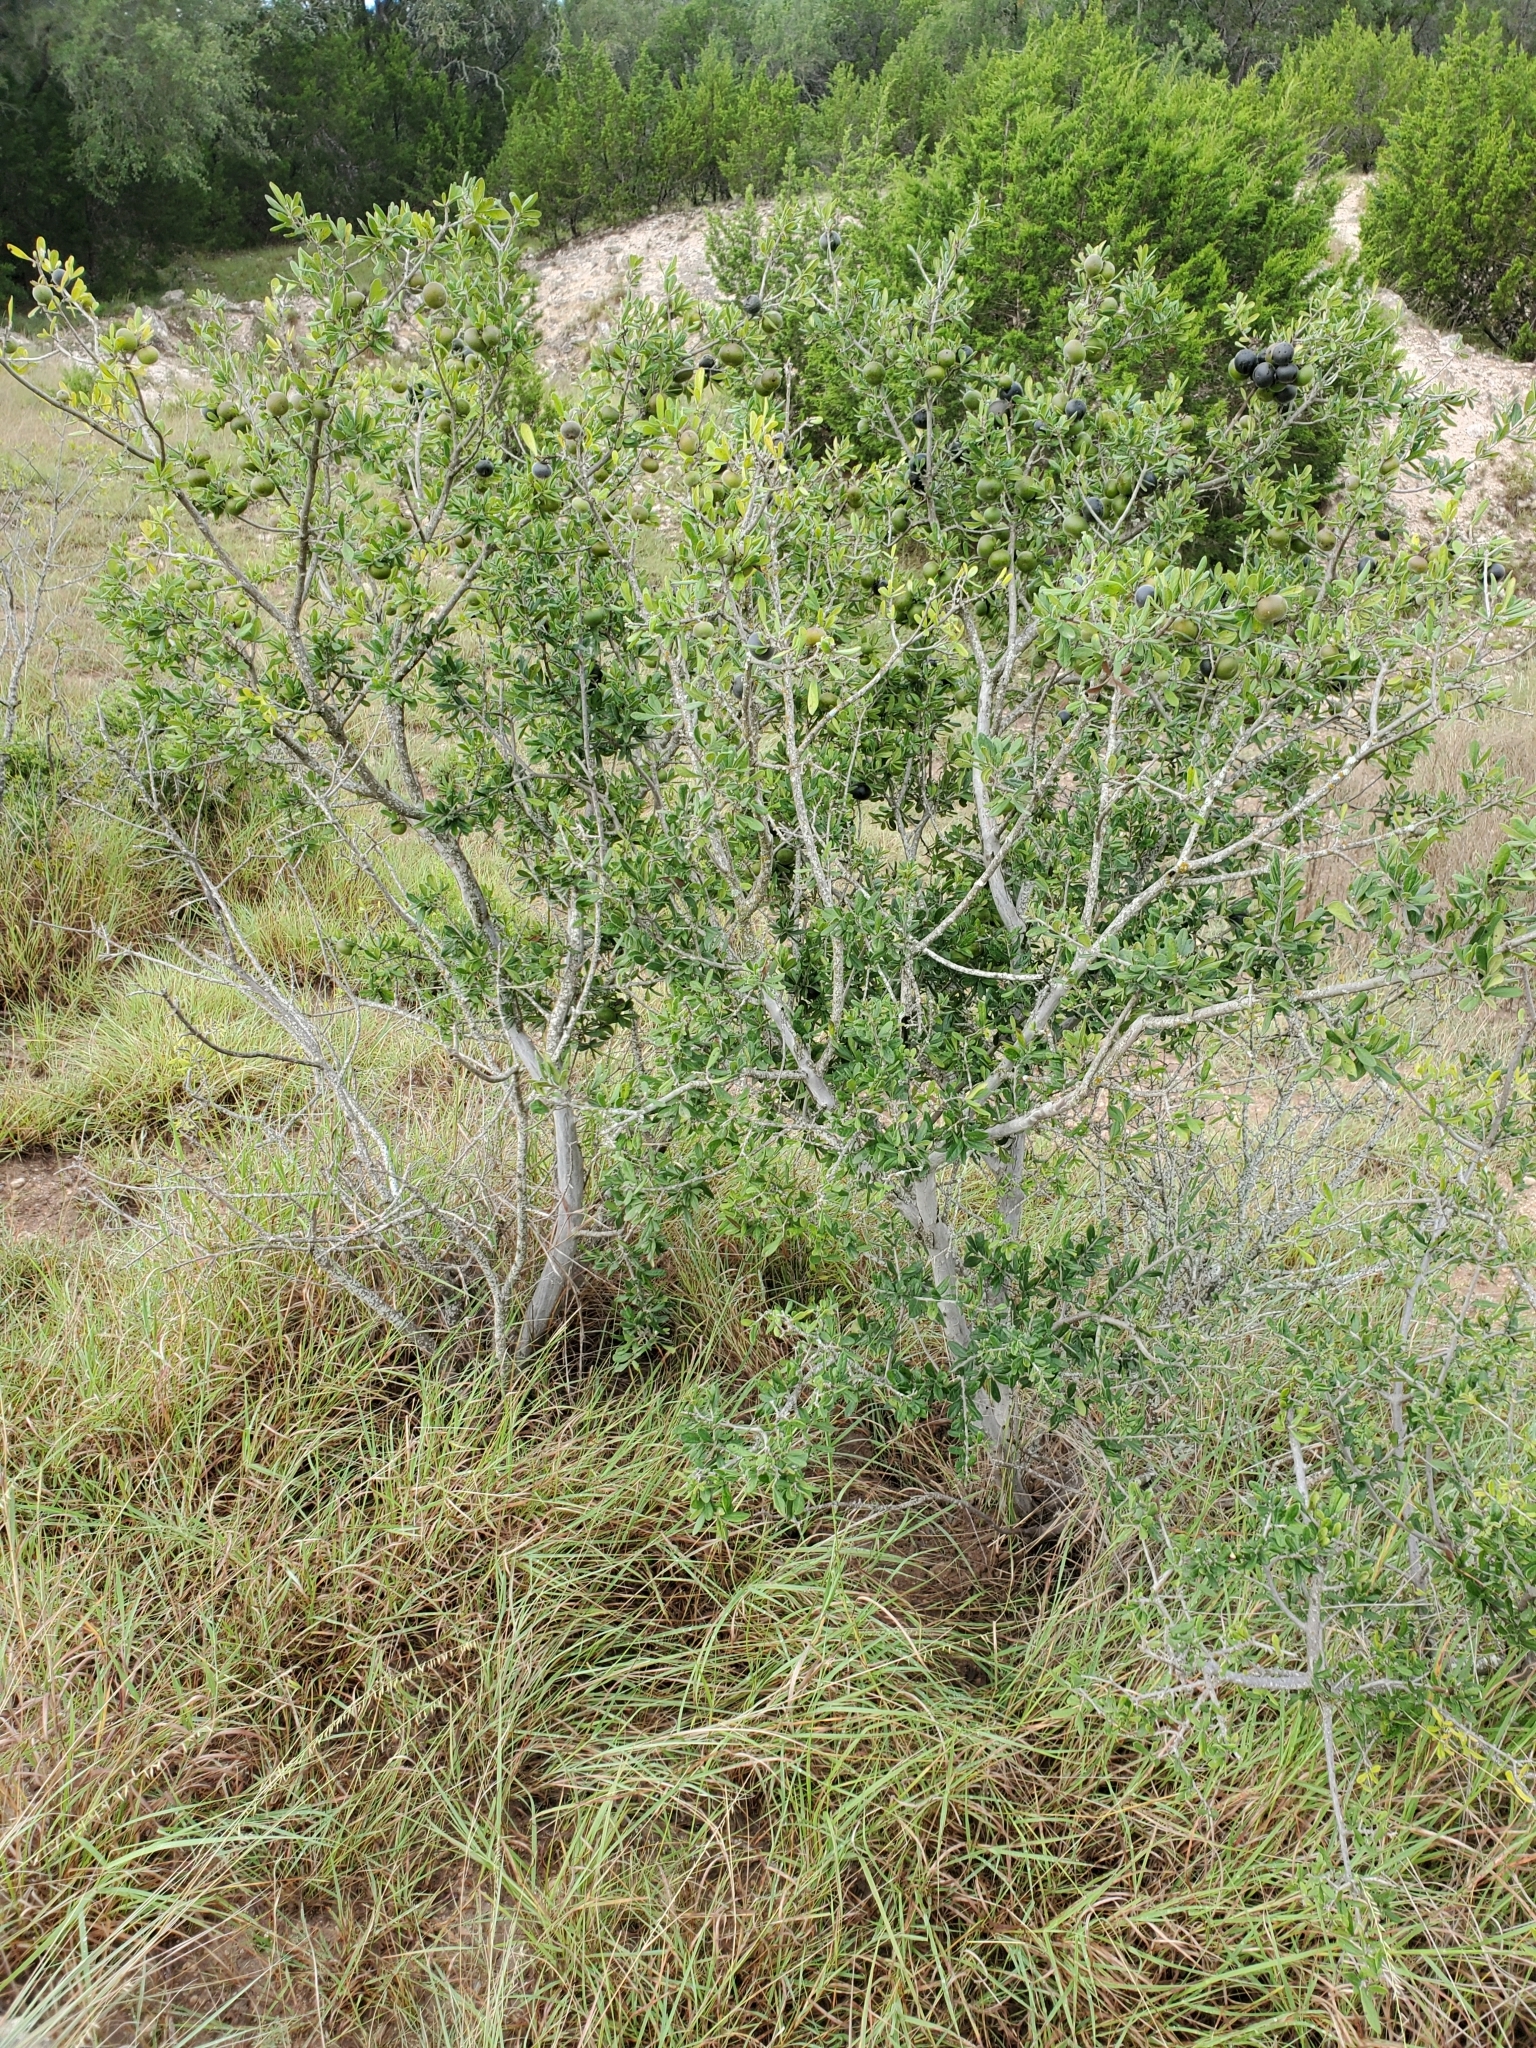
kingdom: Plantae
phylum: Tracheophyta
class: Magnoliopsida
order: Ericales
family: Ebenaceae
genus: Diospyros
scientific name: Diospyros texana
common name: Texas persimmon
